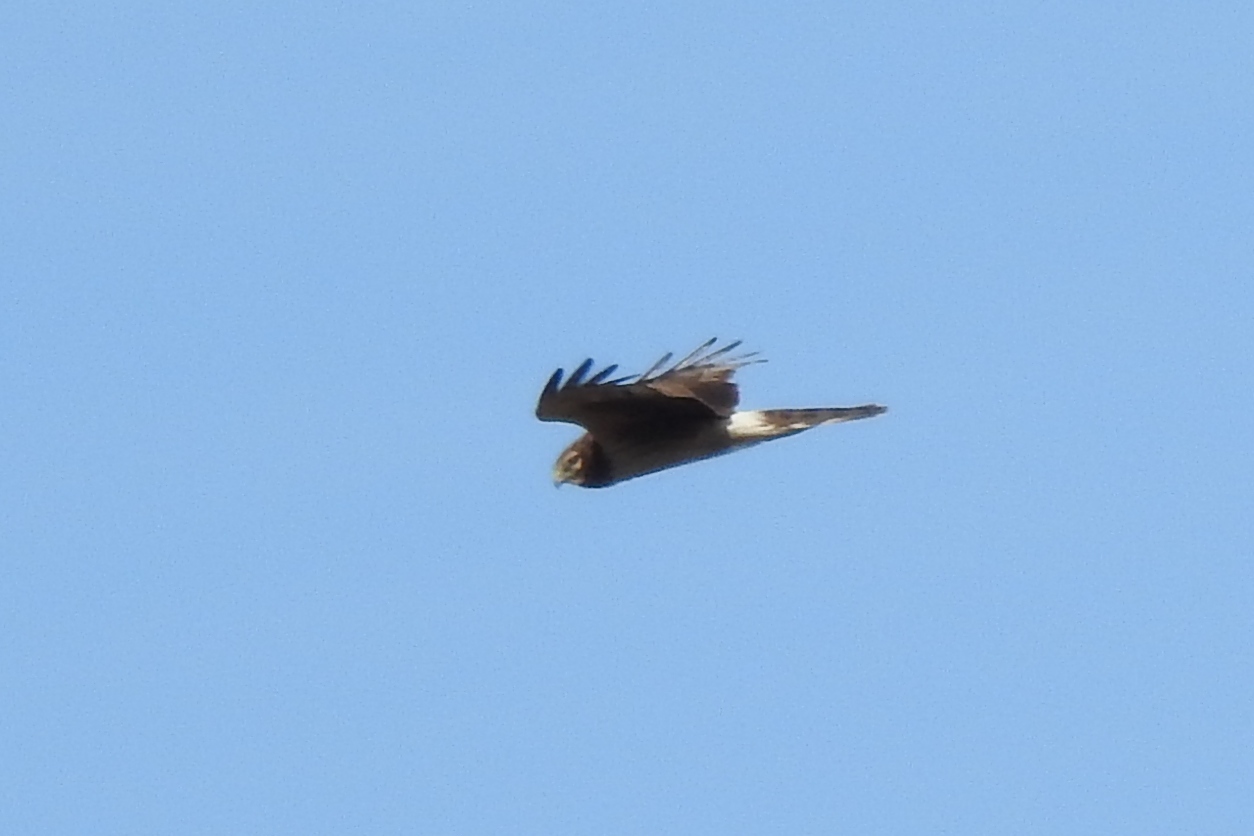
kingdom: Animalia
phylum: Chordata
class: Aves
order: Accipitriformes
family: Accipitridae
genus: Circus
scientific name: Circus cyaneus
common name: Hen harrier
